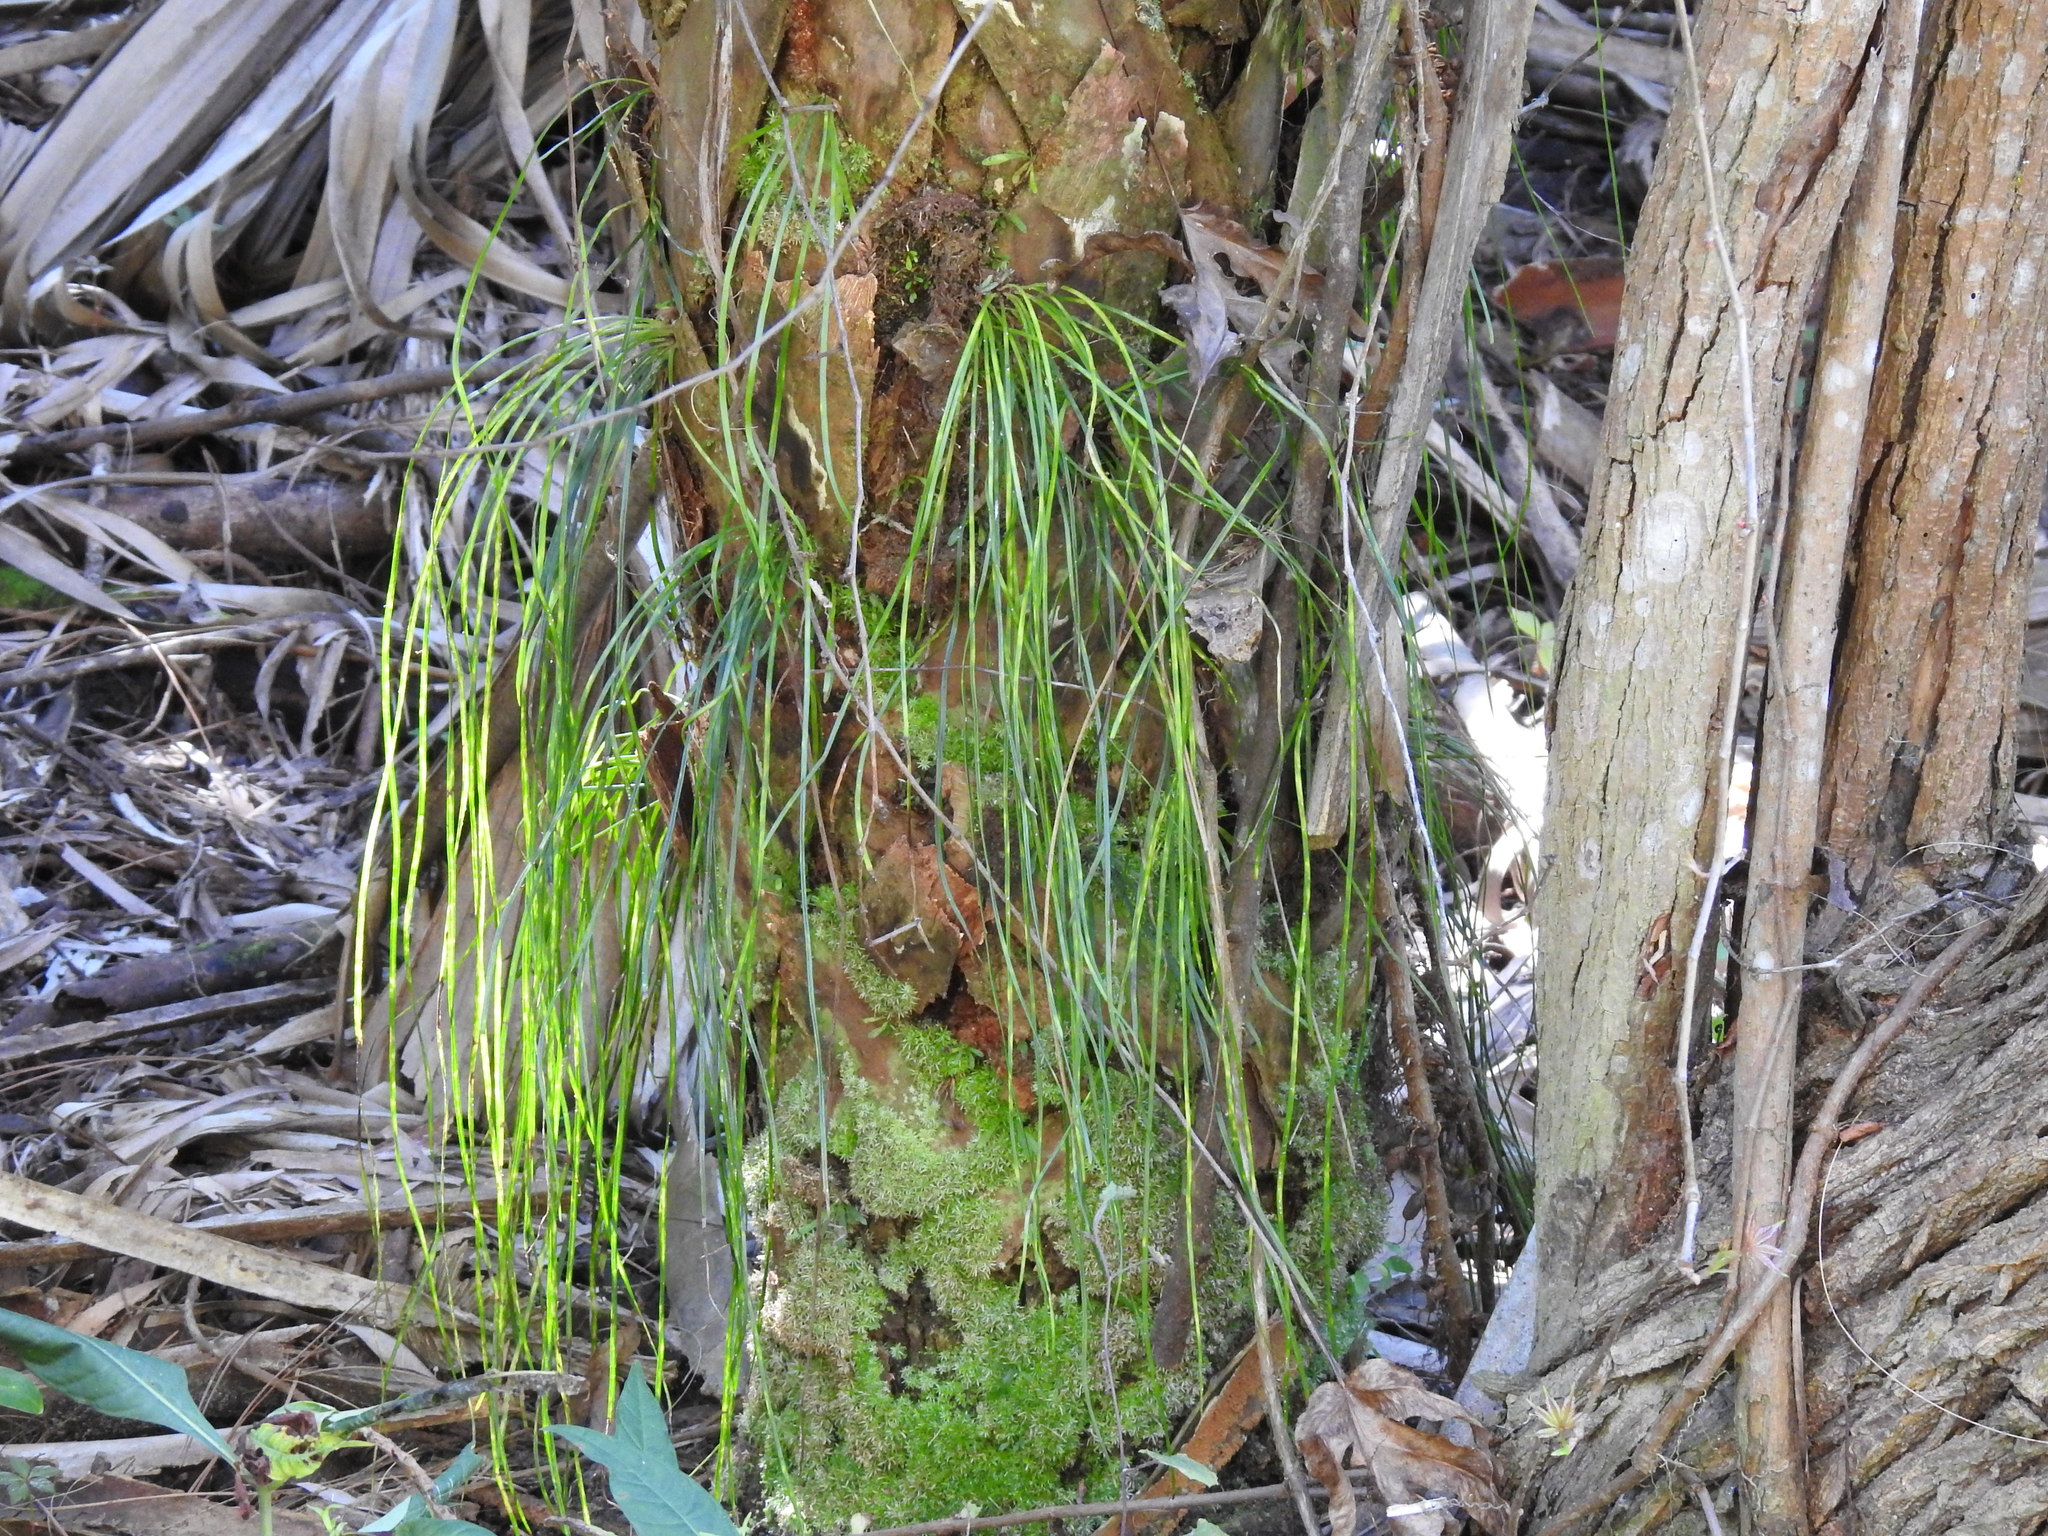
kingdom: Plantae
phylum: Tracheophyta
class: Polypodiopsida
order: Polypodiales
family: Pteridaceae
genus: Vittaria
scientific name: Vittaria lineata
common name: Shoestring fern
